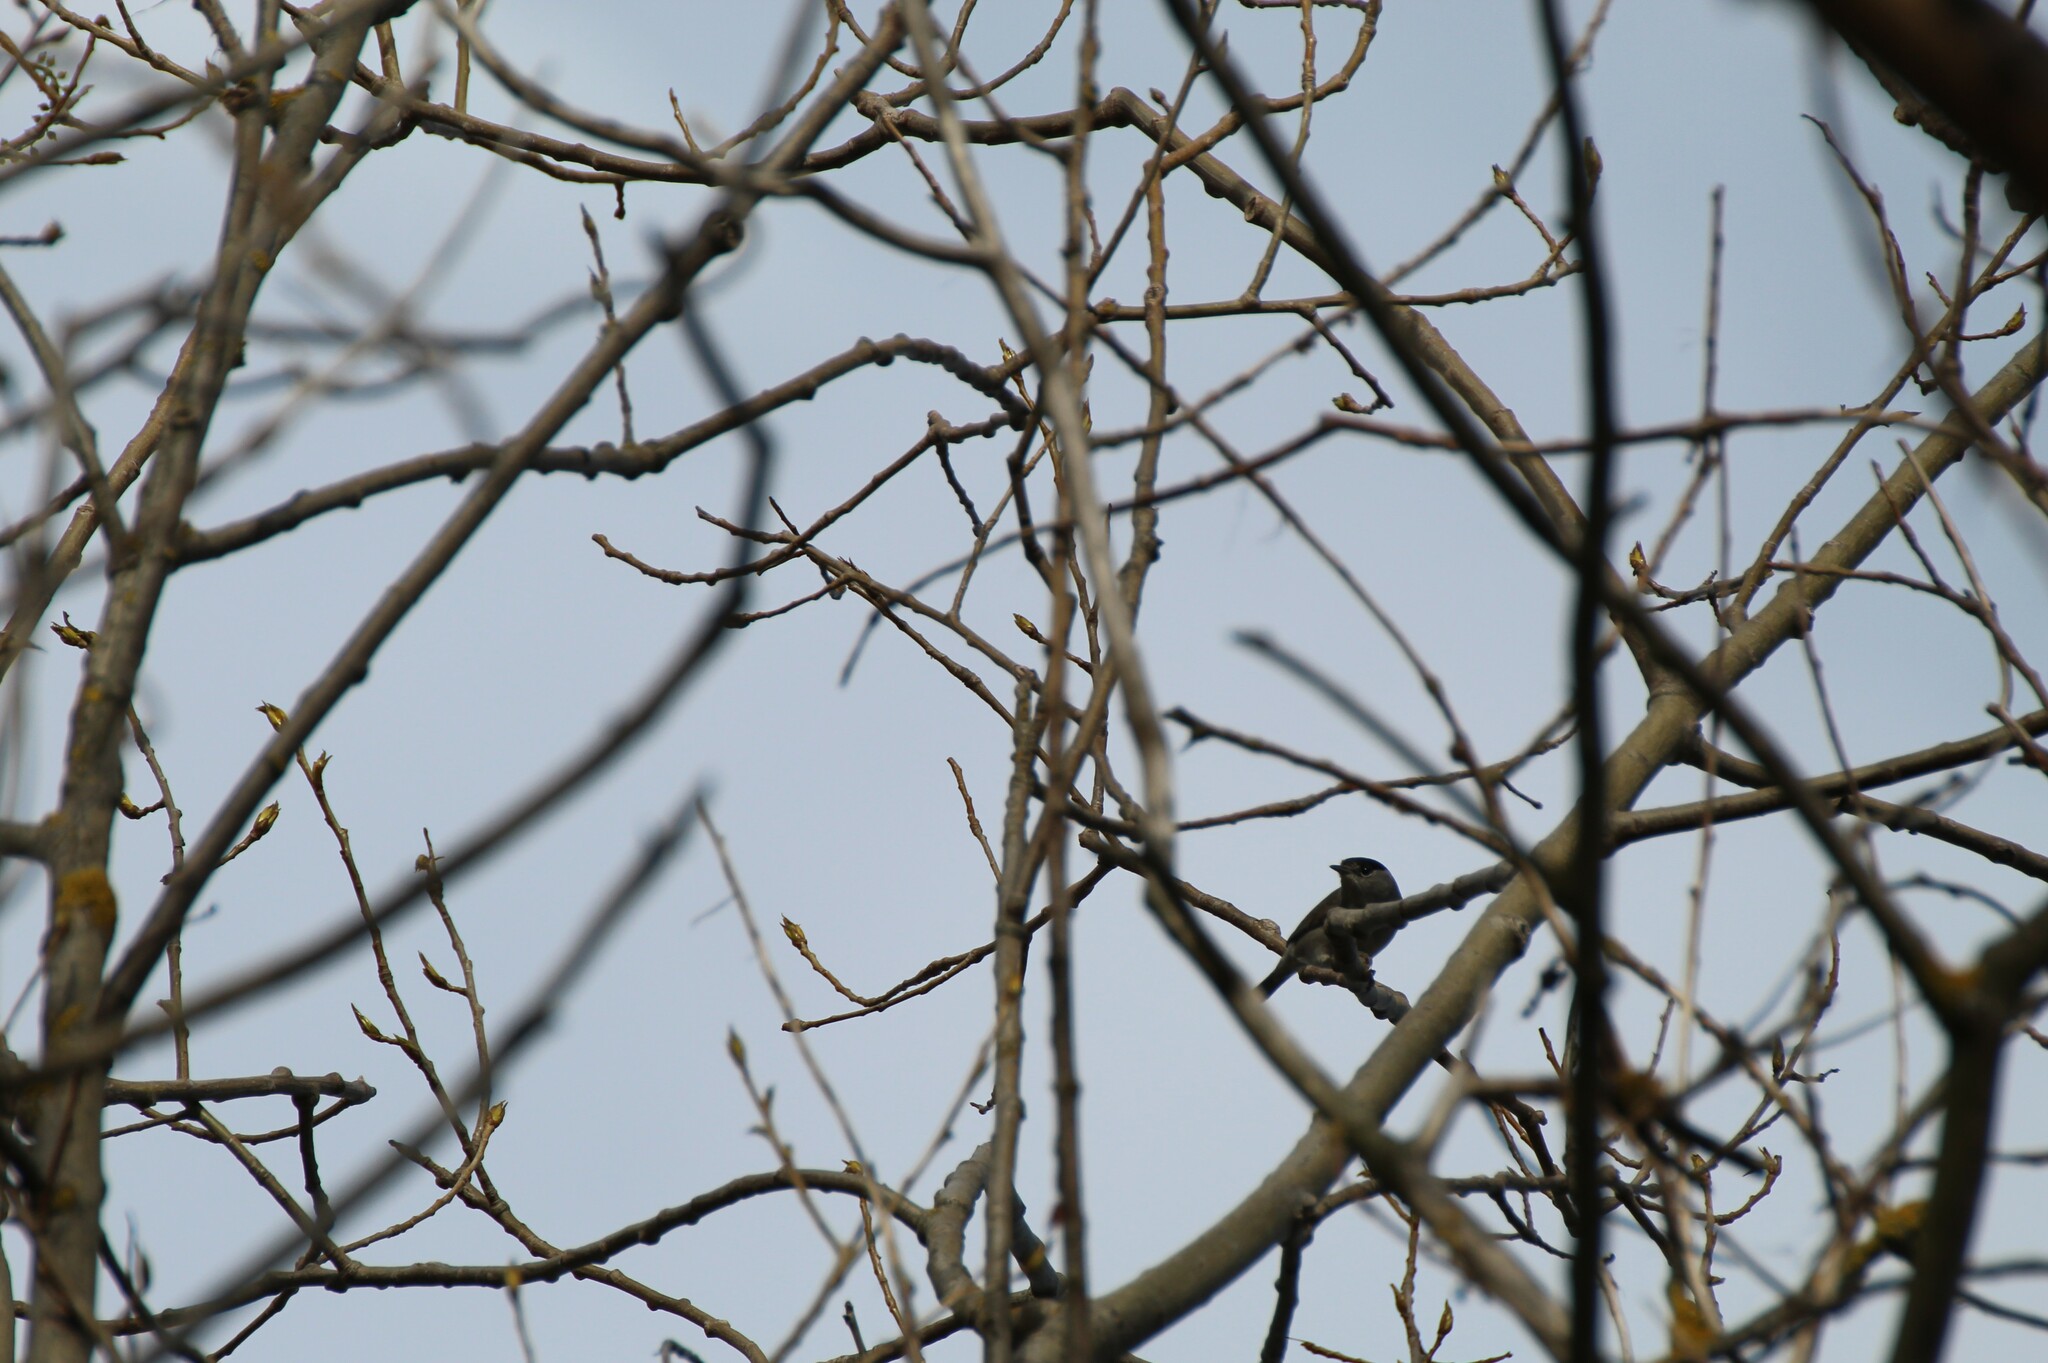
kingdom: Animalia
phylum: Chordata
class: Aves
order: Passeriformes
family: Sylviidae
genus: Sylvia
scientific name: Sylvia atricapilla
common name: Eurasian blackcap
